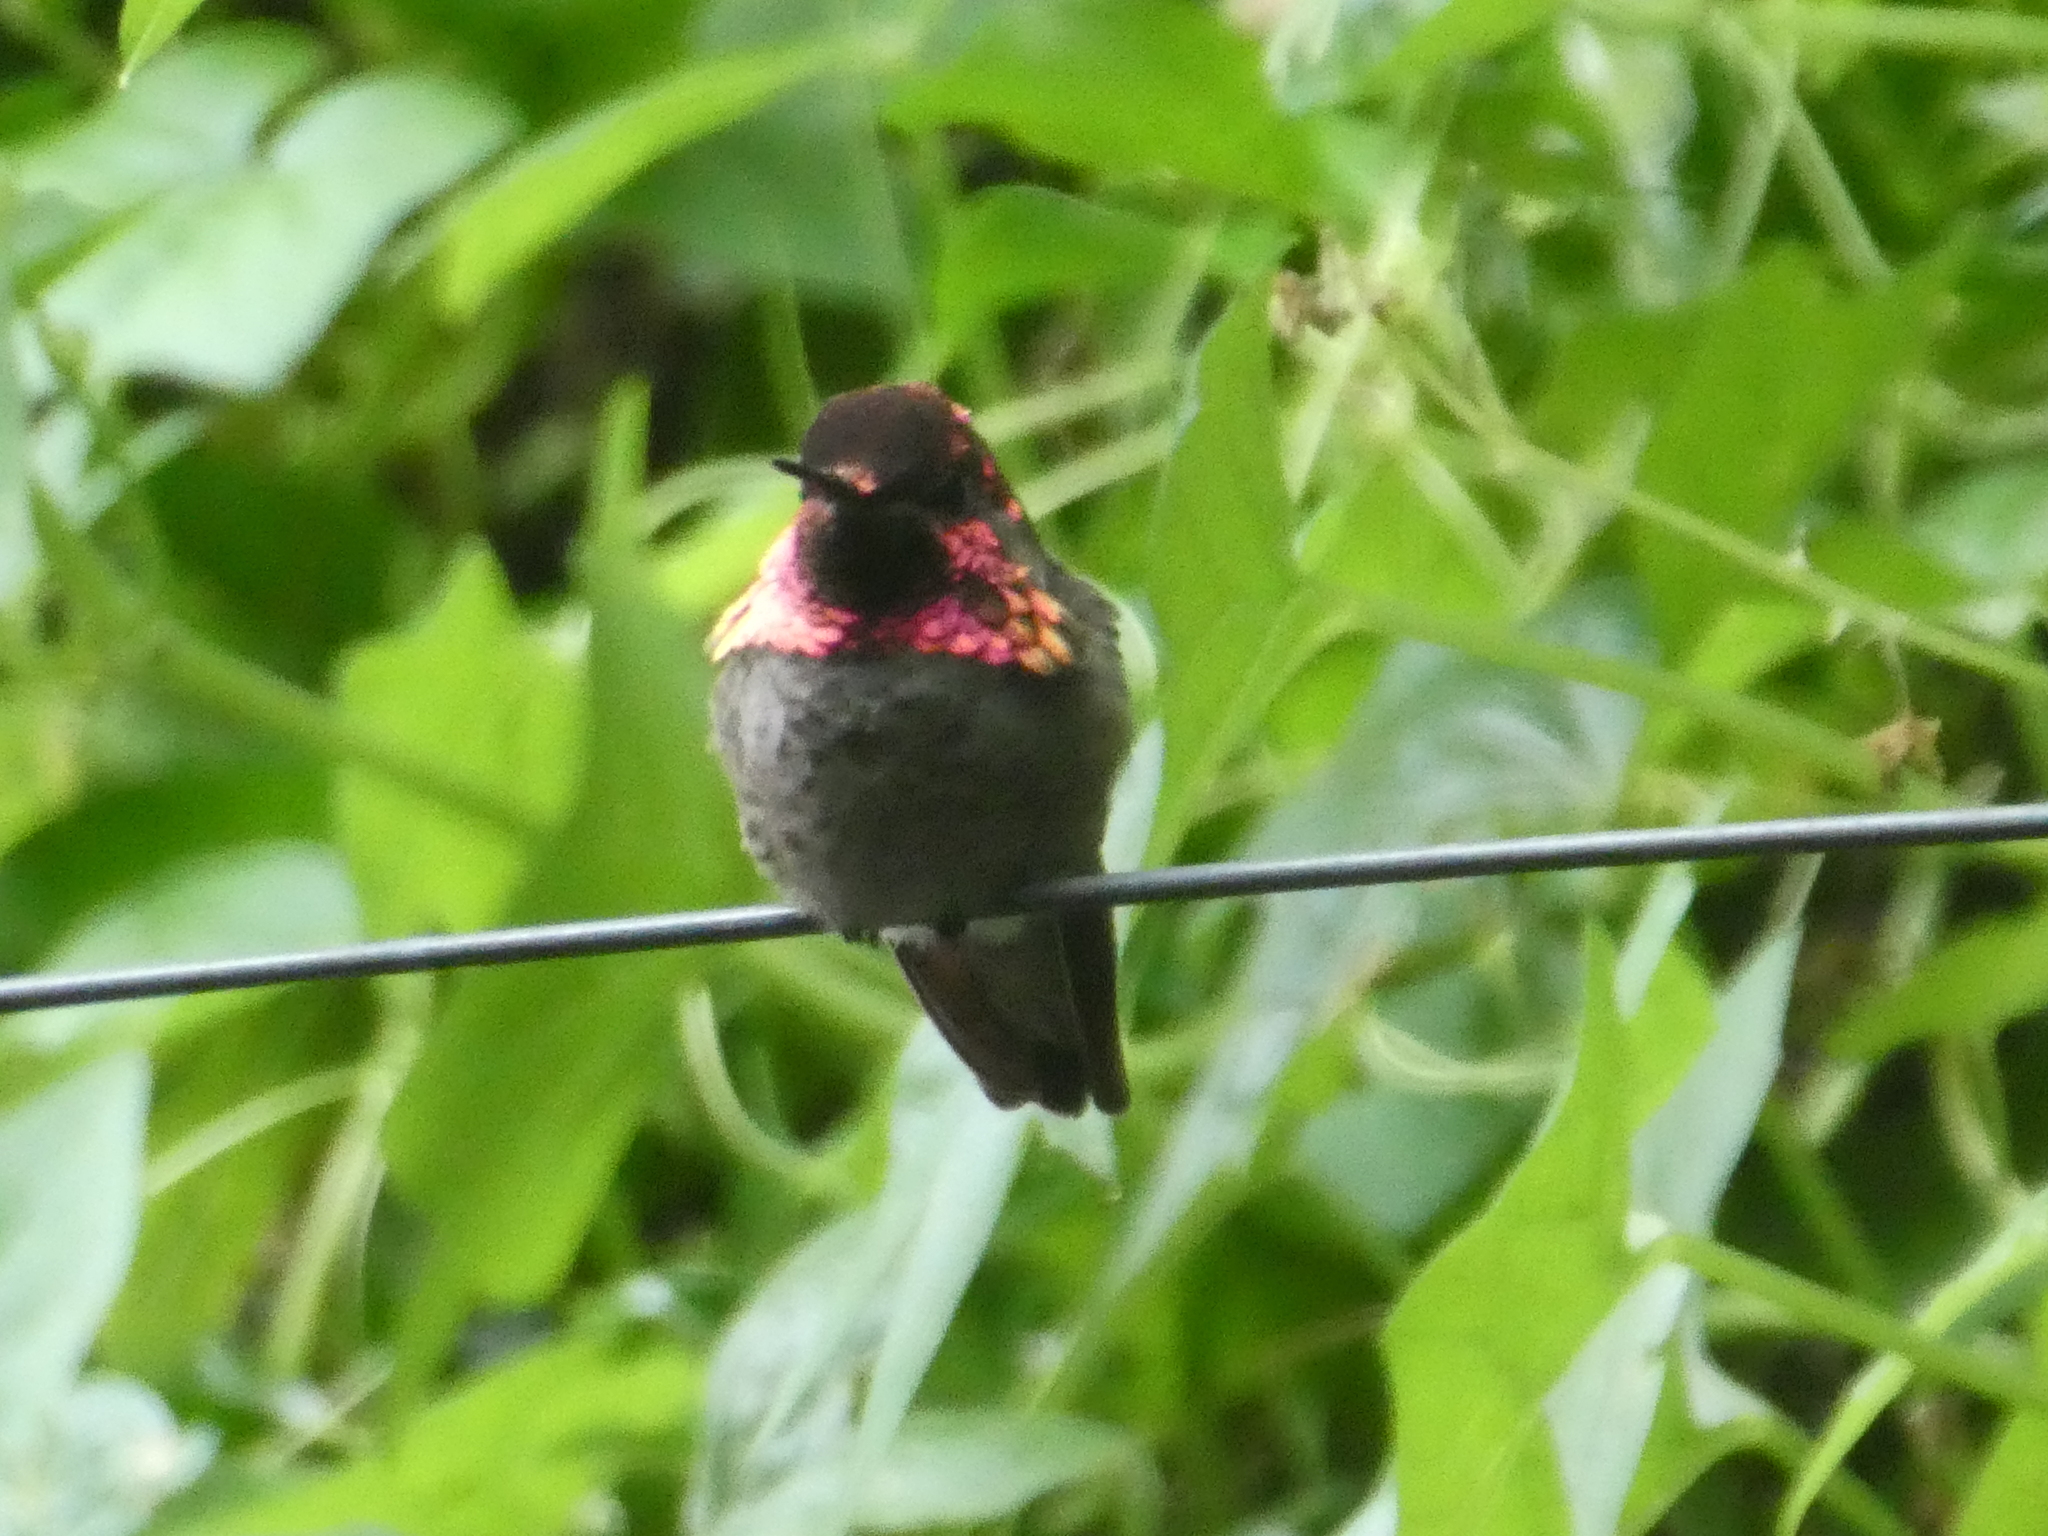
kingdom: Animalia
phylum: Chordata
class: Aves
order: Apodiformes
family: Trochilidae
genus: Calypte
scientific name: Calypte anna
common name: Anna's hummingbird
